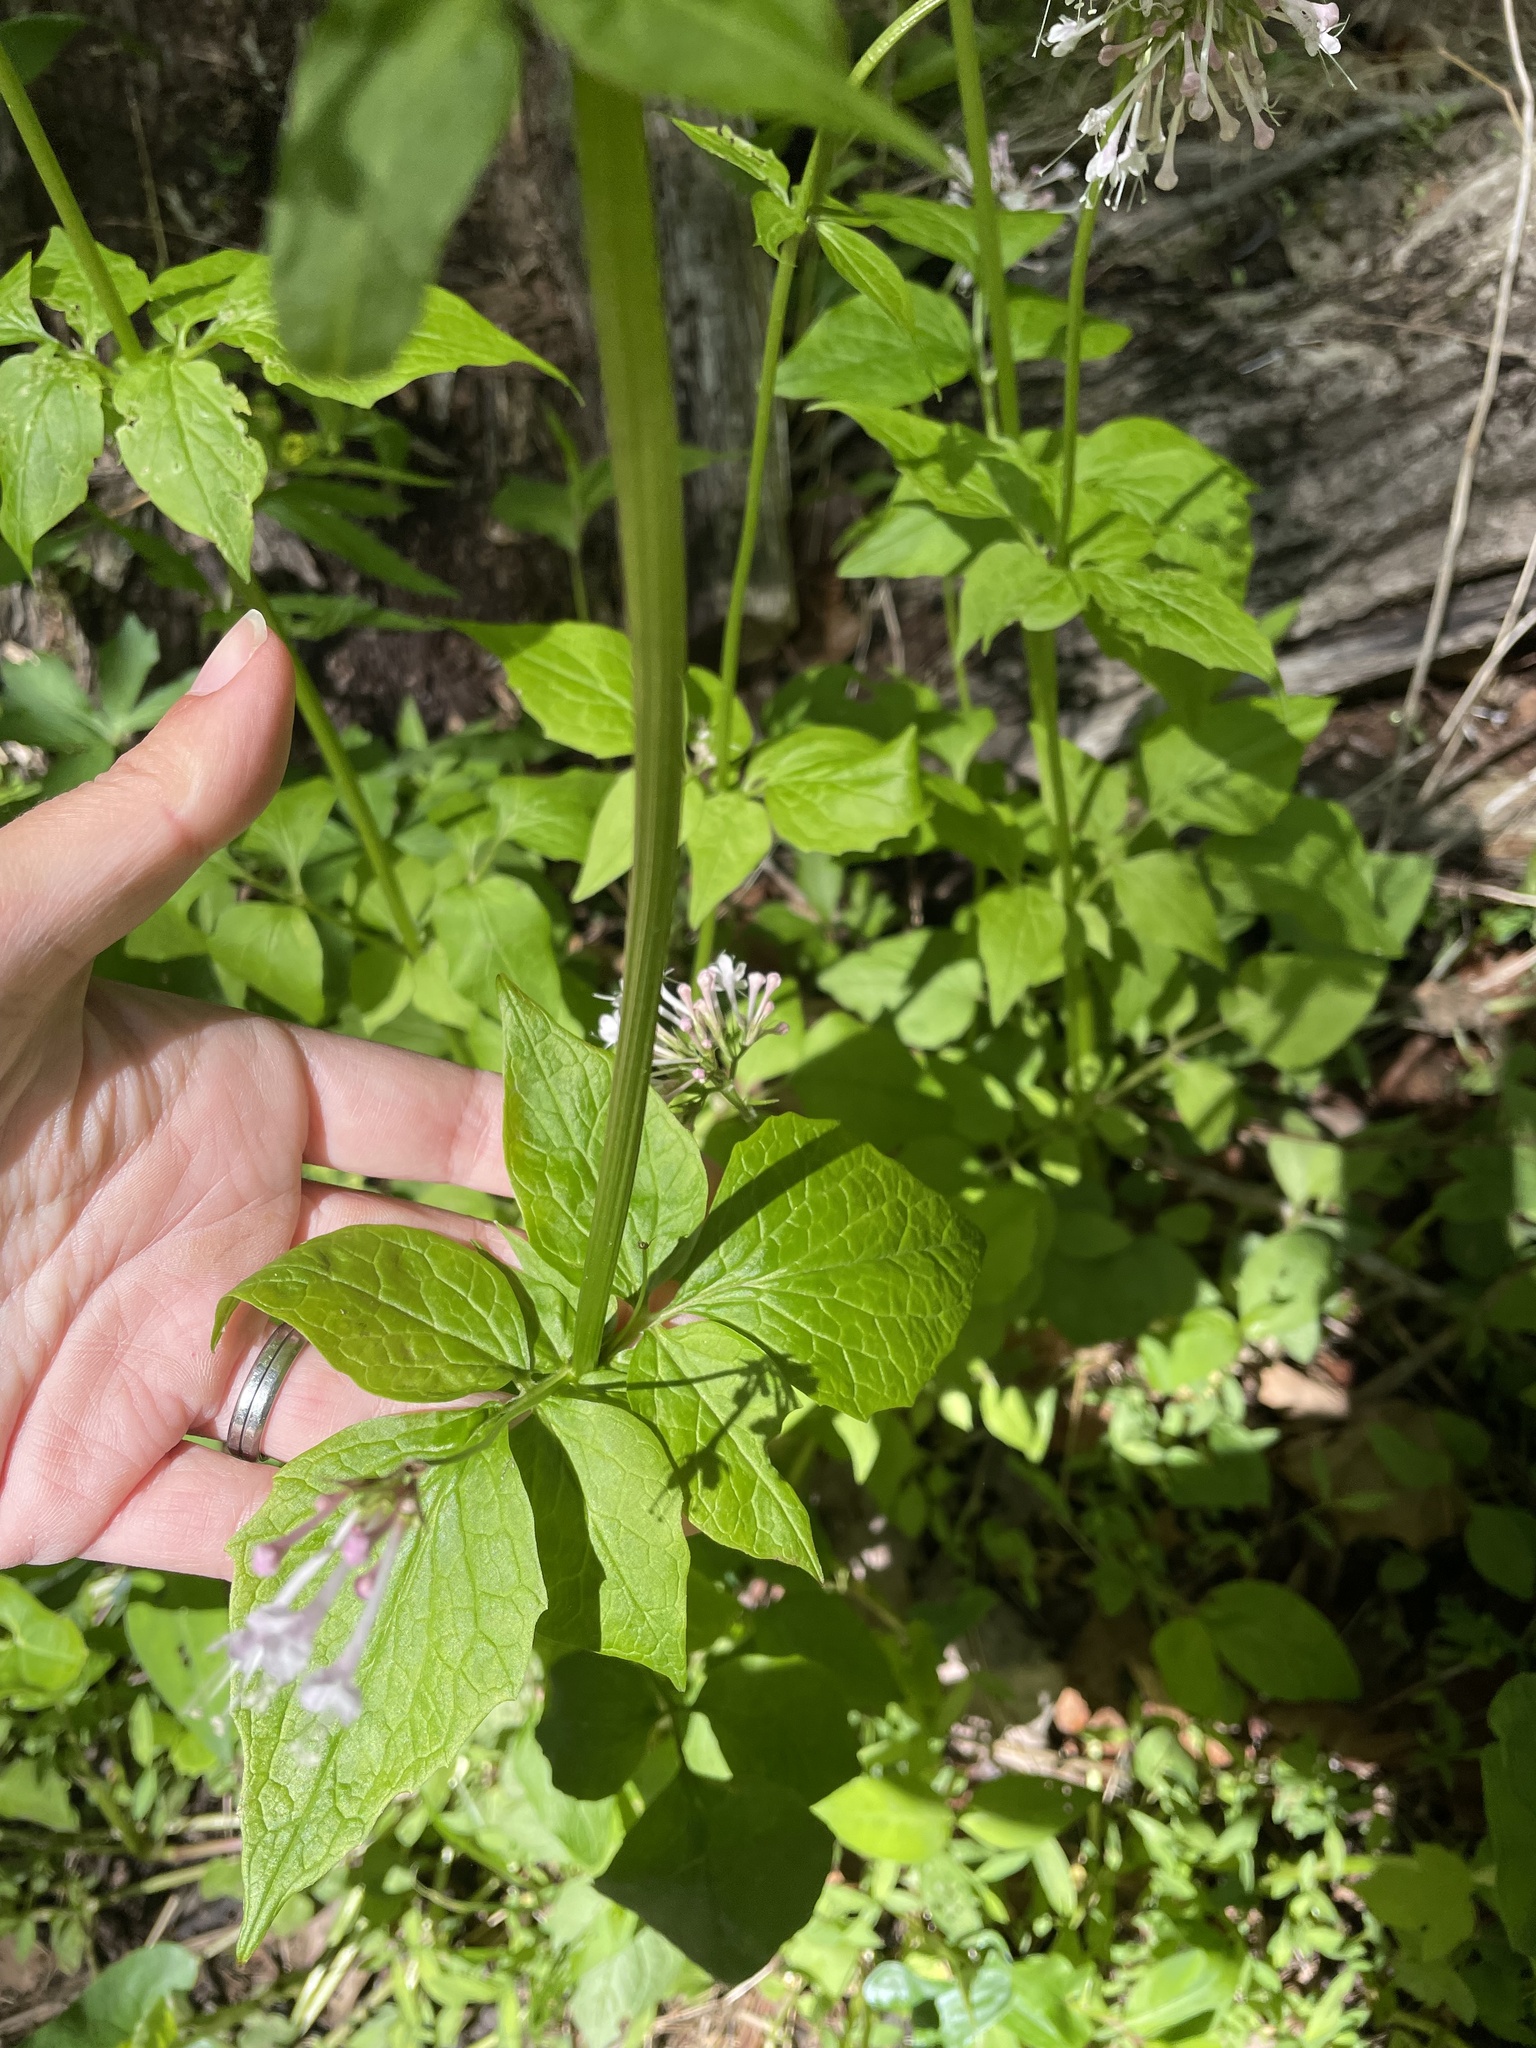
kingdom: Plantae
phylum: Tracheophyta
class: Magnoliopsida
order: Dipsacales
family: Caprifoliaceae
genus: Valeriana
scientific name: Valeriana pauciflora
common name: Long-tube valeriana
